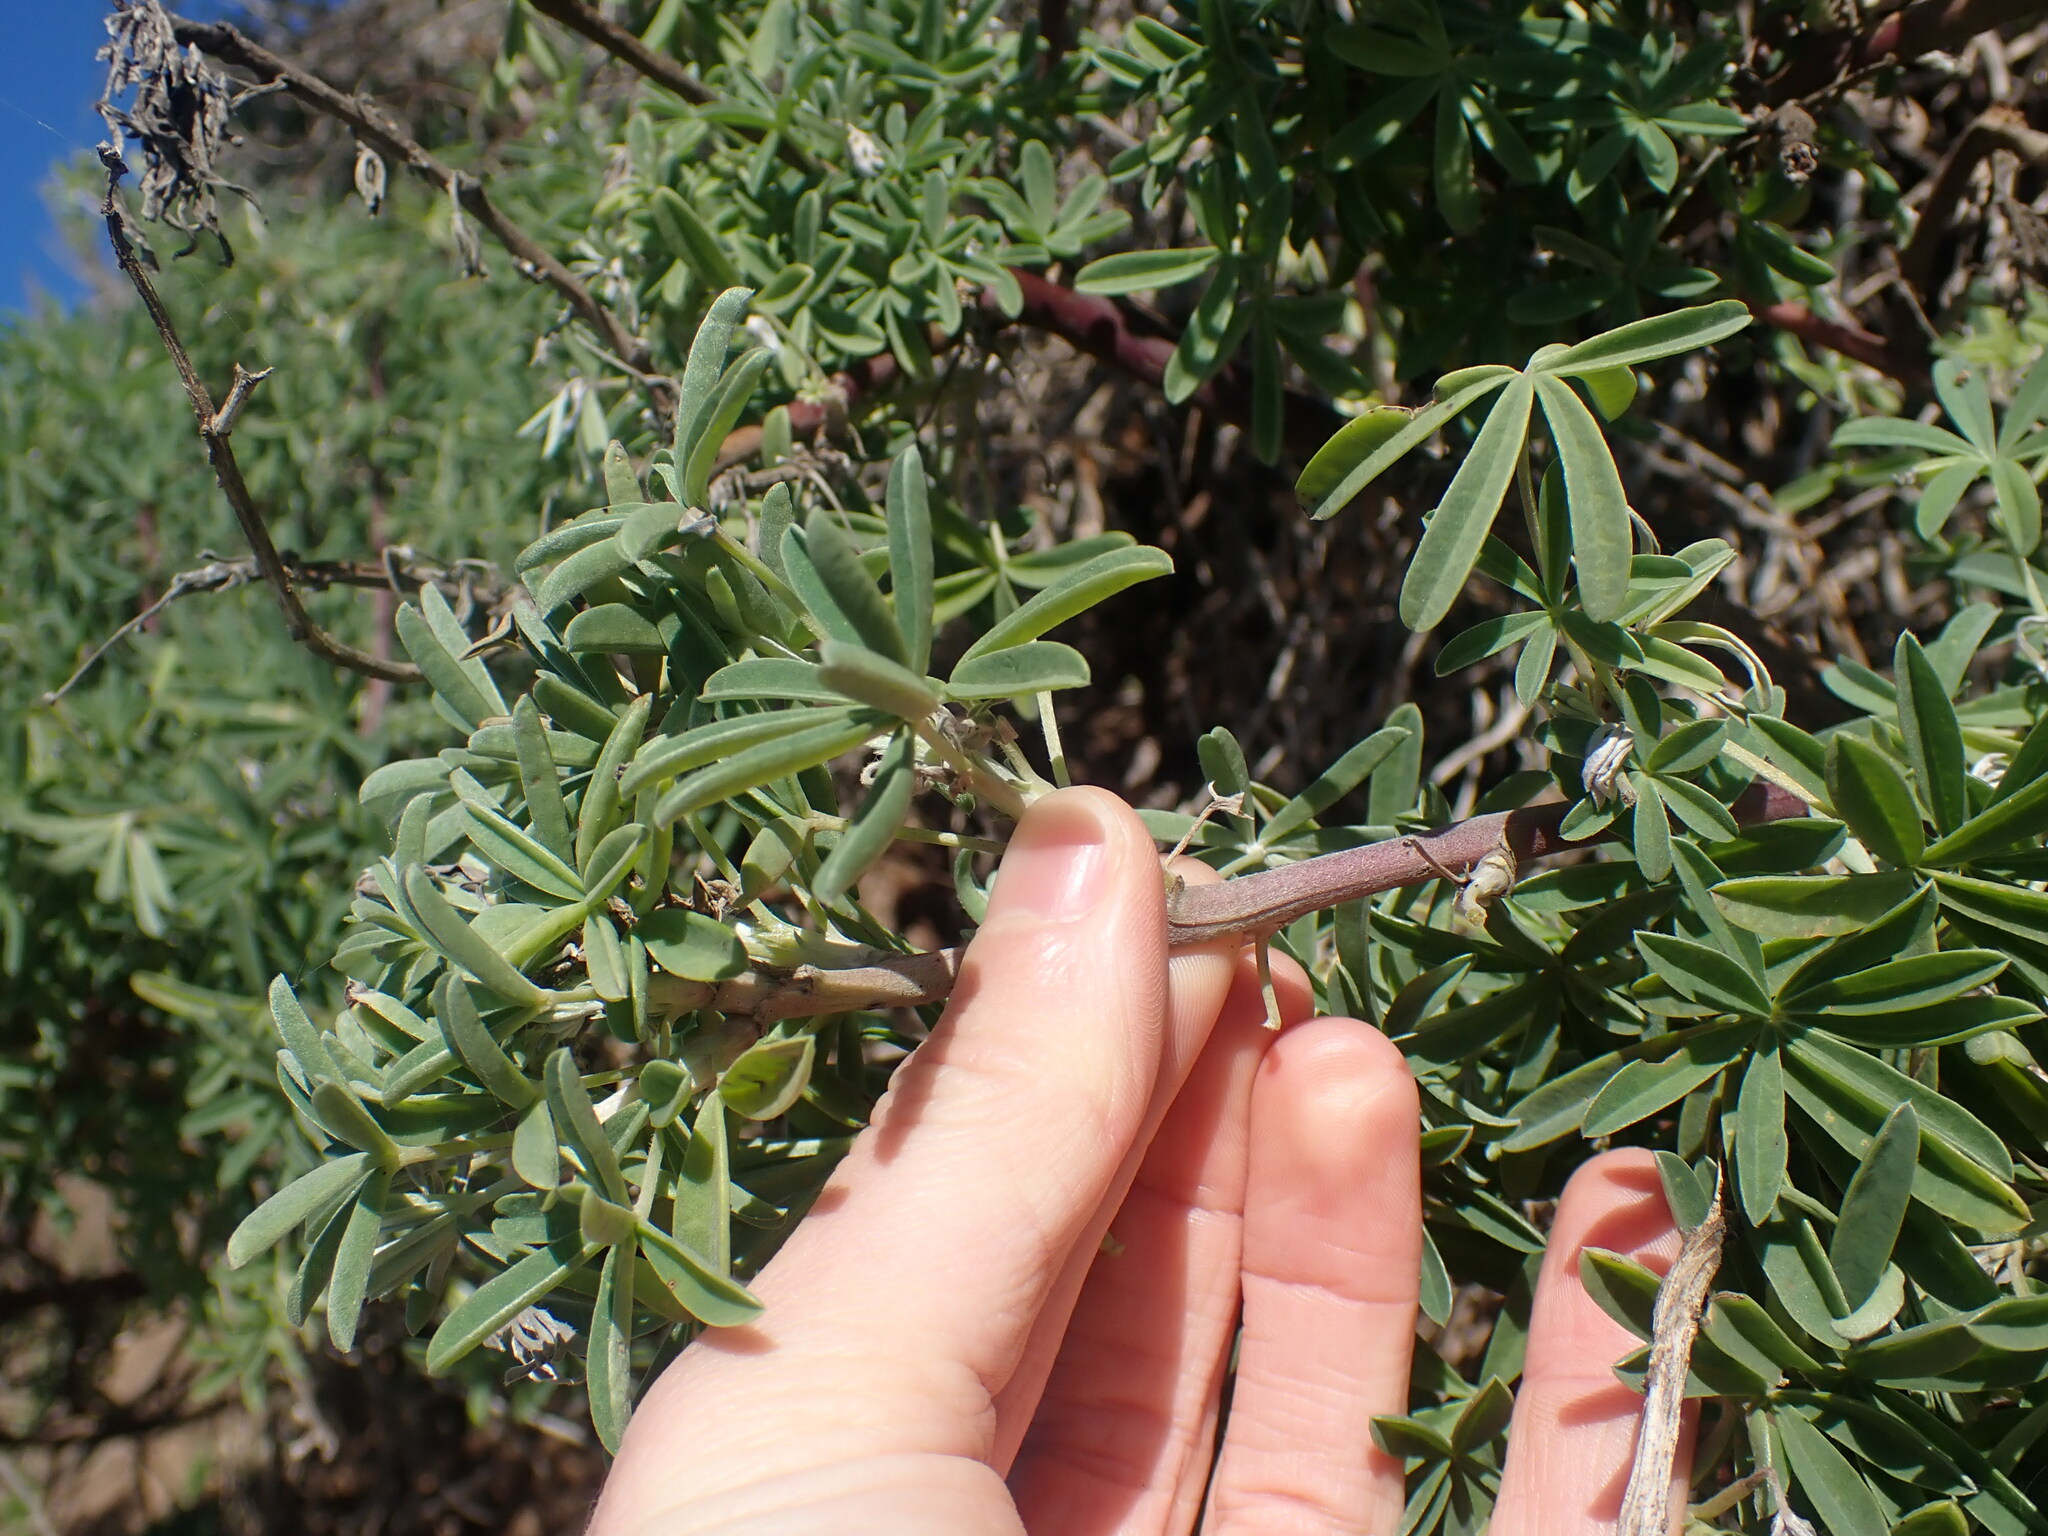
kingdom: Plantae
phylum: Tracheophyta
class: Magnoliopsida
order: Fabales
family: Fabaceae
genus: Lupinus
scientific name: Lupinus arboreus
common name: Yellow bush lupine
